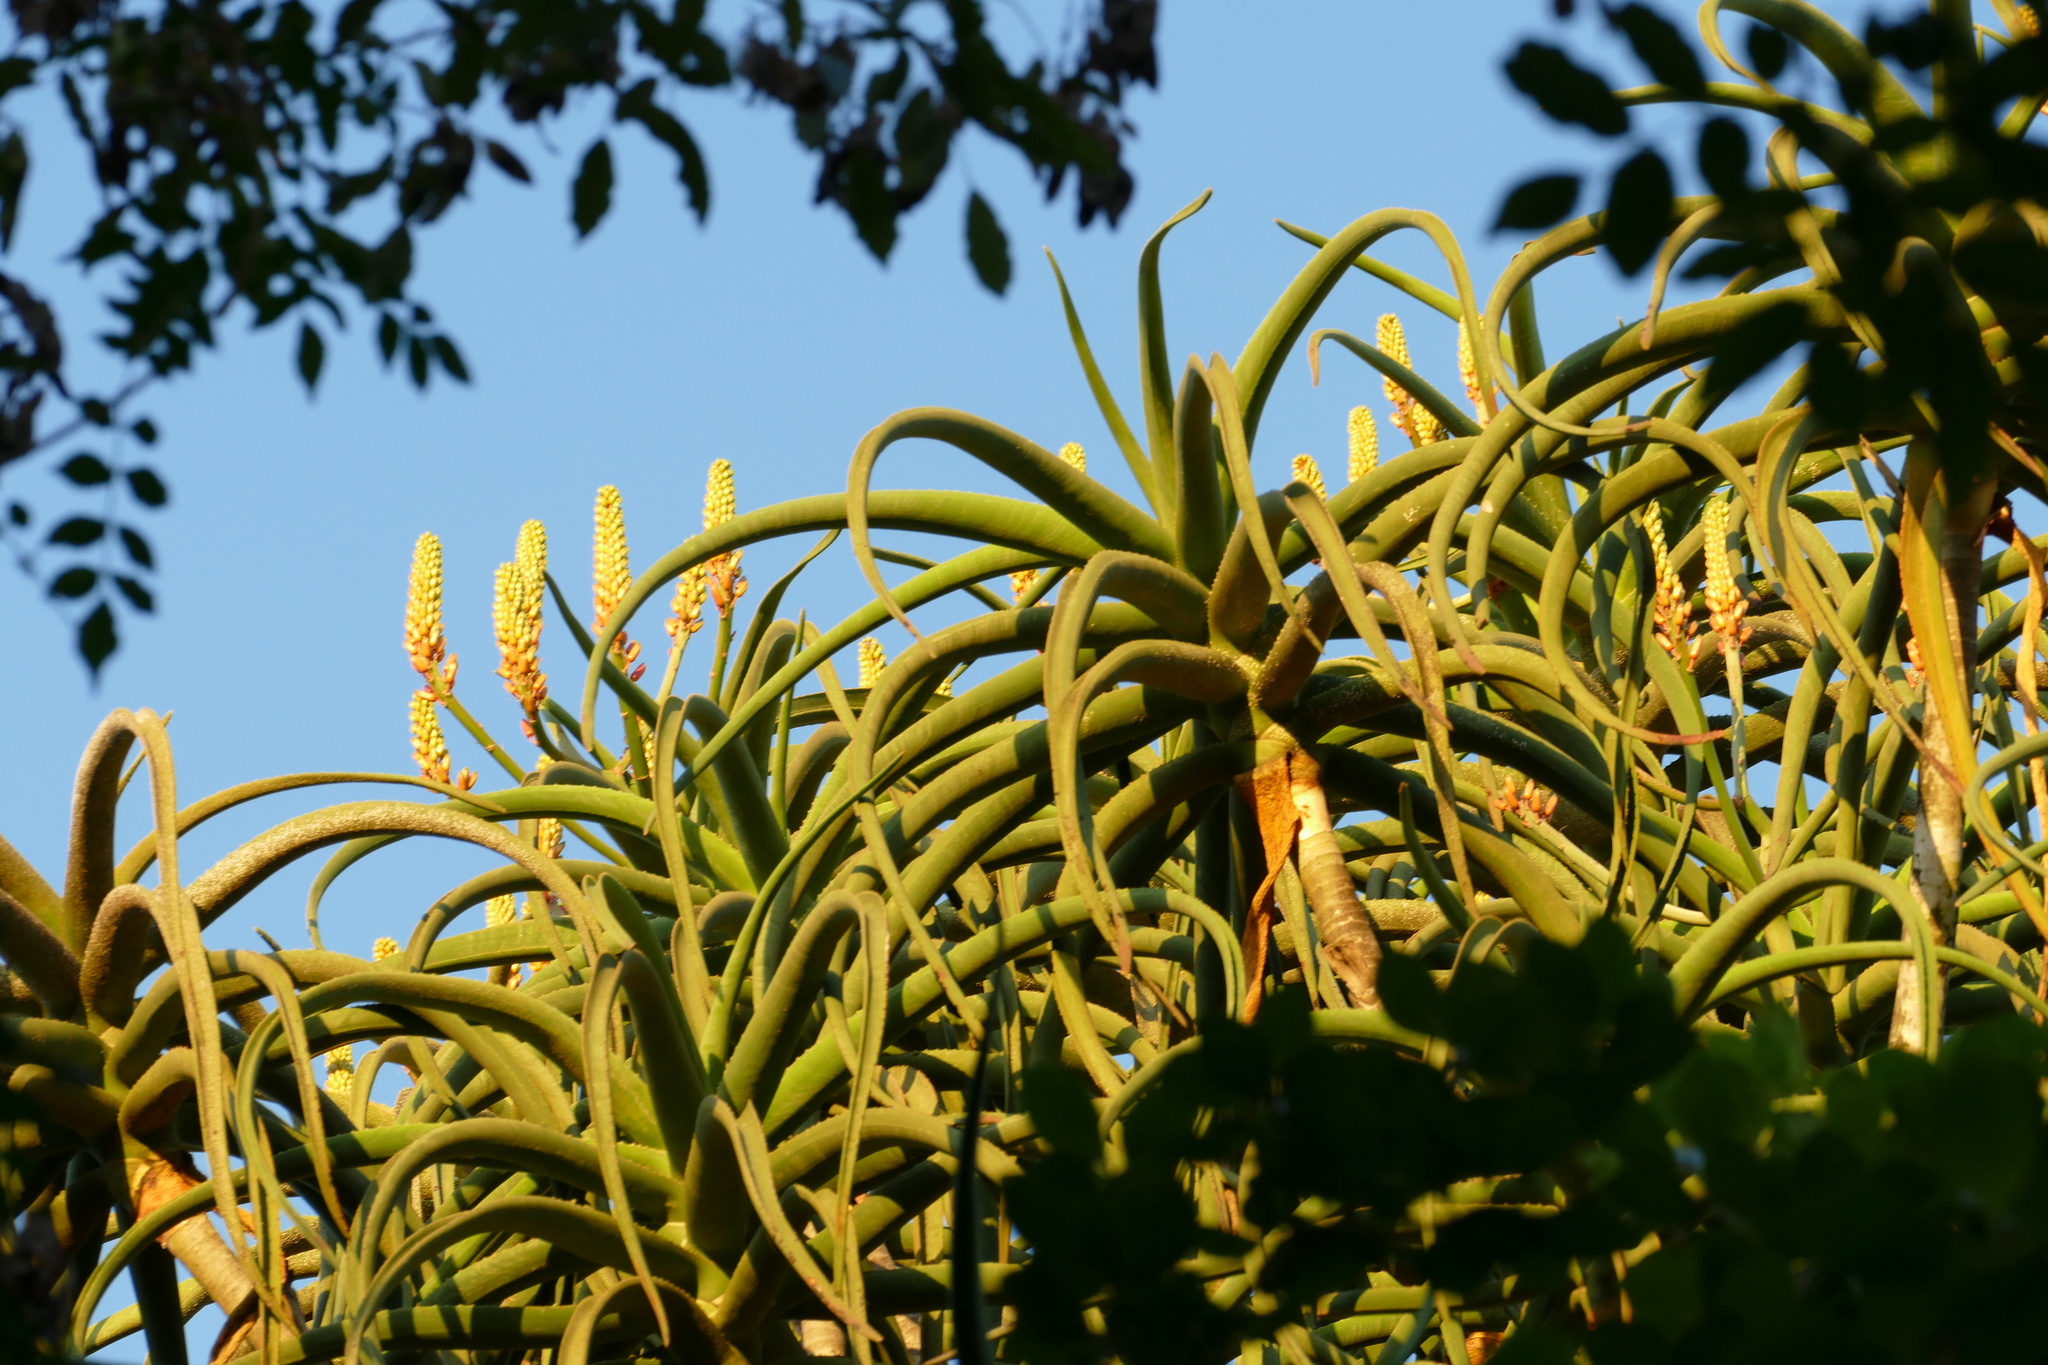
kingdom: Plantae
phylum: Tracheophyta
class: Liliopsida
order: Asparagales
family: Asphodelaceae
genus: Aloidendron
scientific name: Aloidendron barberae
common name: Tree aloe
